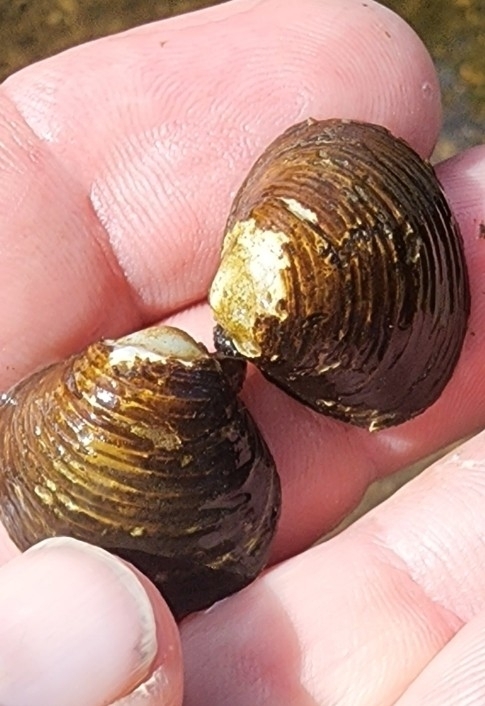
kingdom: Animalia
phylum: Mollusca
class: Bivalvia
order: Venerida
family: Cyrenidae
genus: Corbicula
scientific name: Corbicula fluminea
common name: Asian clam
